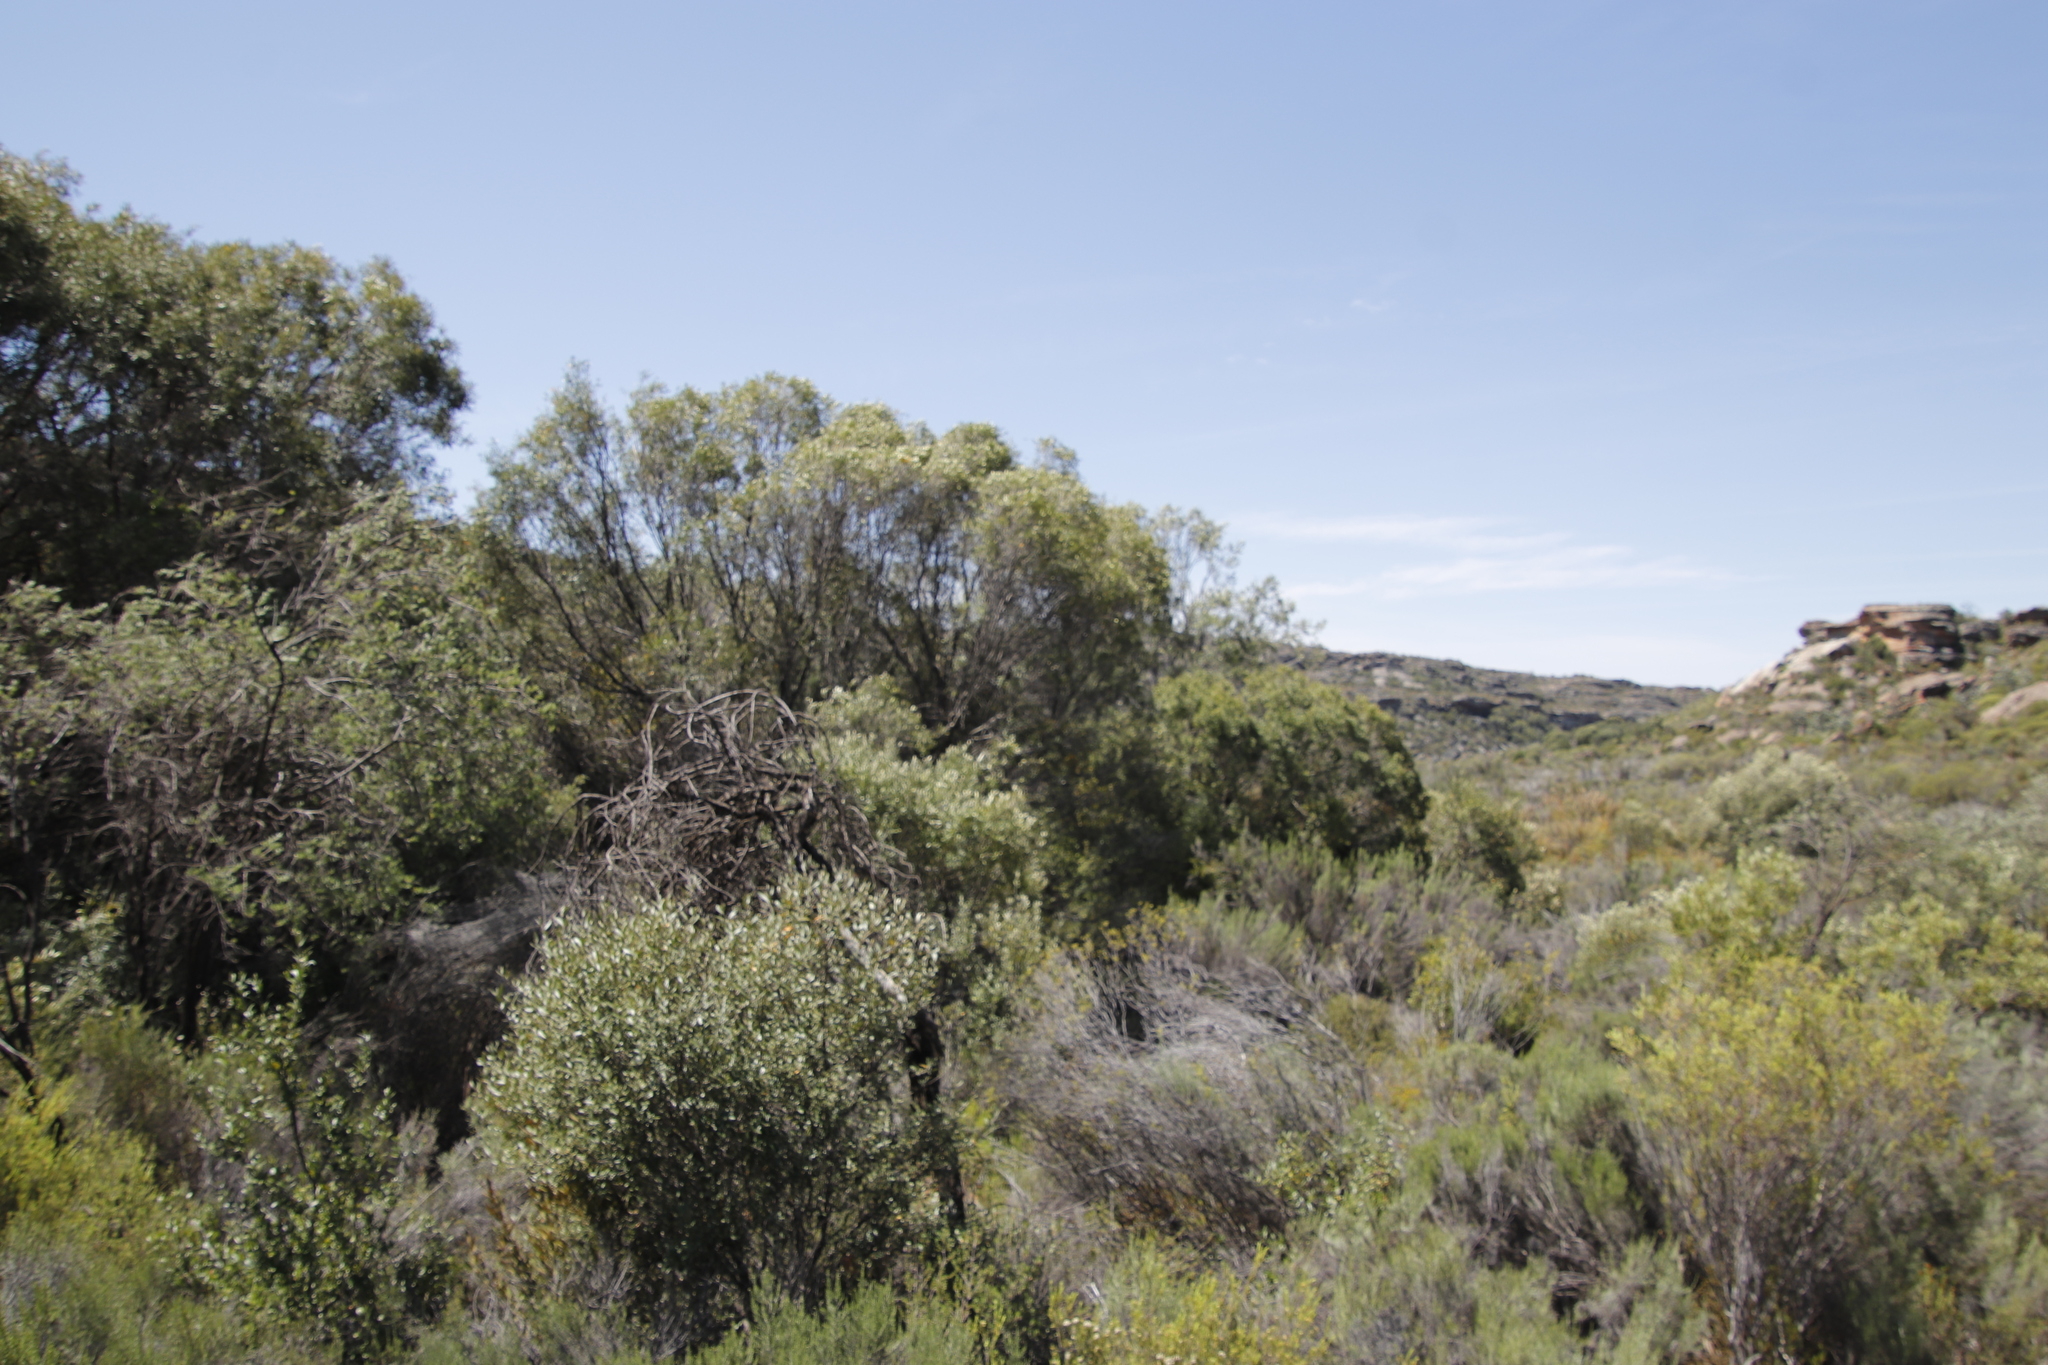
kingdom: Plantae
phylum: Tracheophyta
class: Magnoliopsida
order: Lamiales
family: Oleaceae
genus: Olea
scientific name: Olea europaea
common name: Olive
